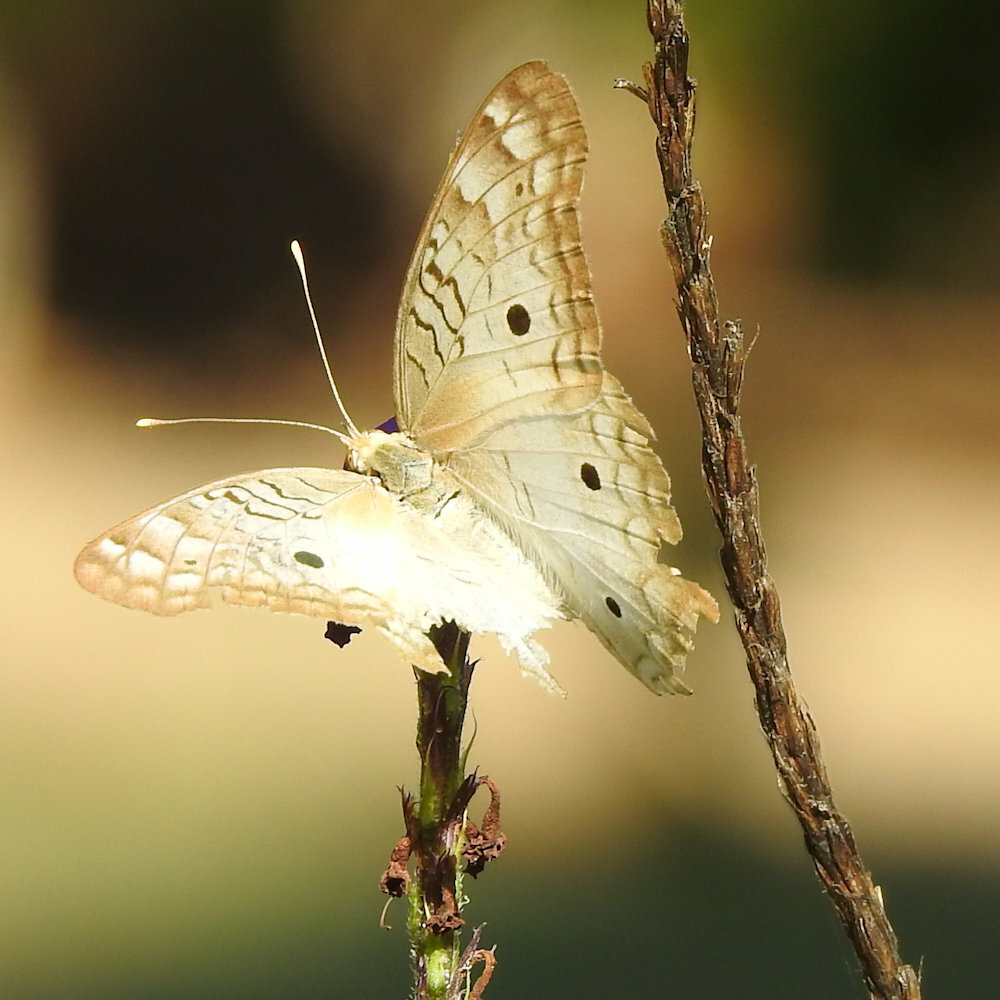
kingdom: Animalia
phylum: Arthropoda
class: Insecta
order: Lepidoptera
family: Nymphalidae
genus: Anartia
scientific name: Anartia jatrophae
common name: White peacock
